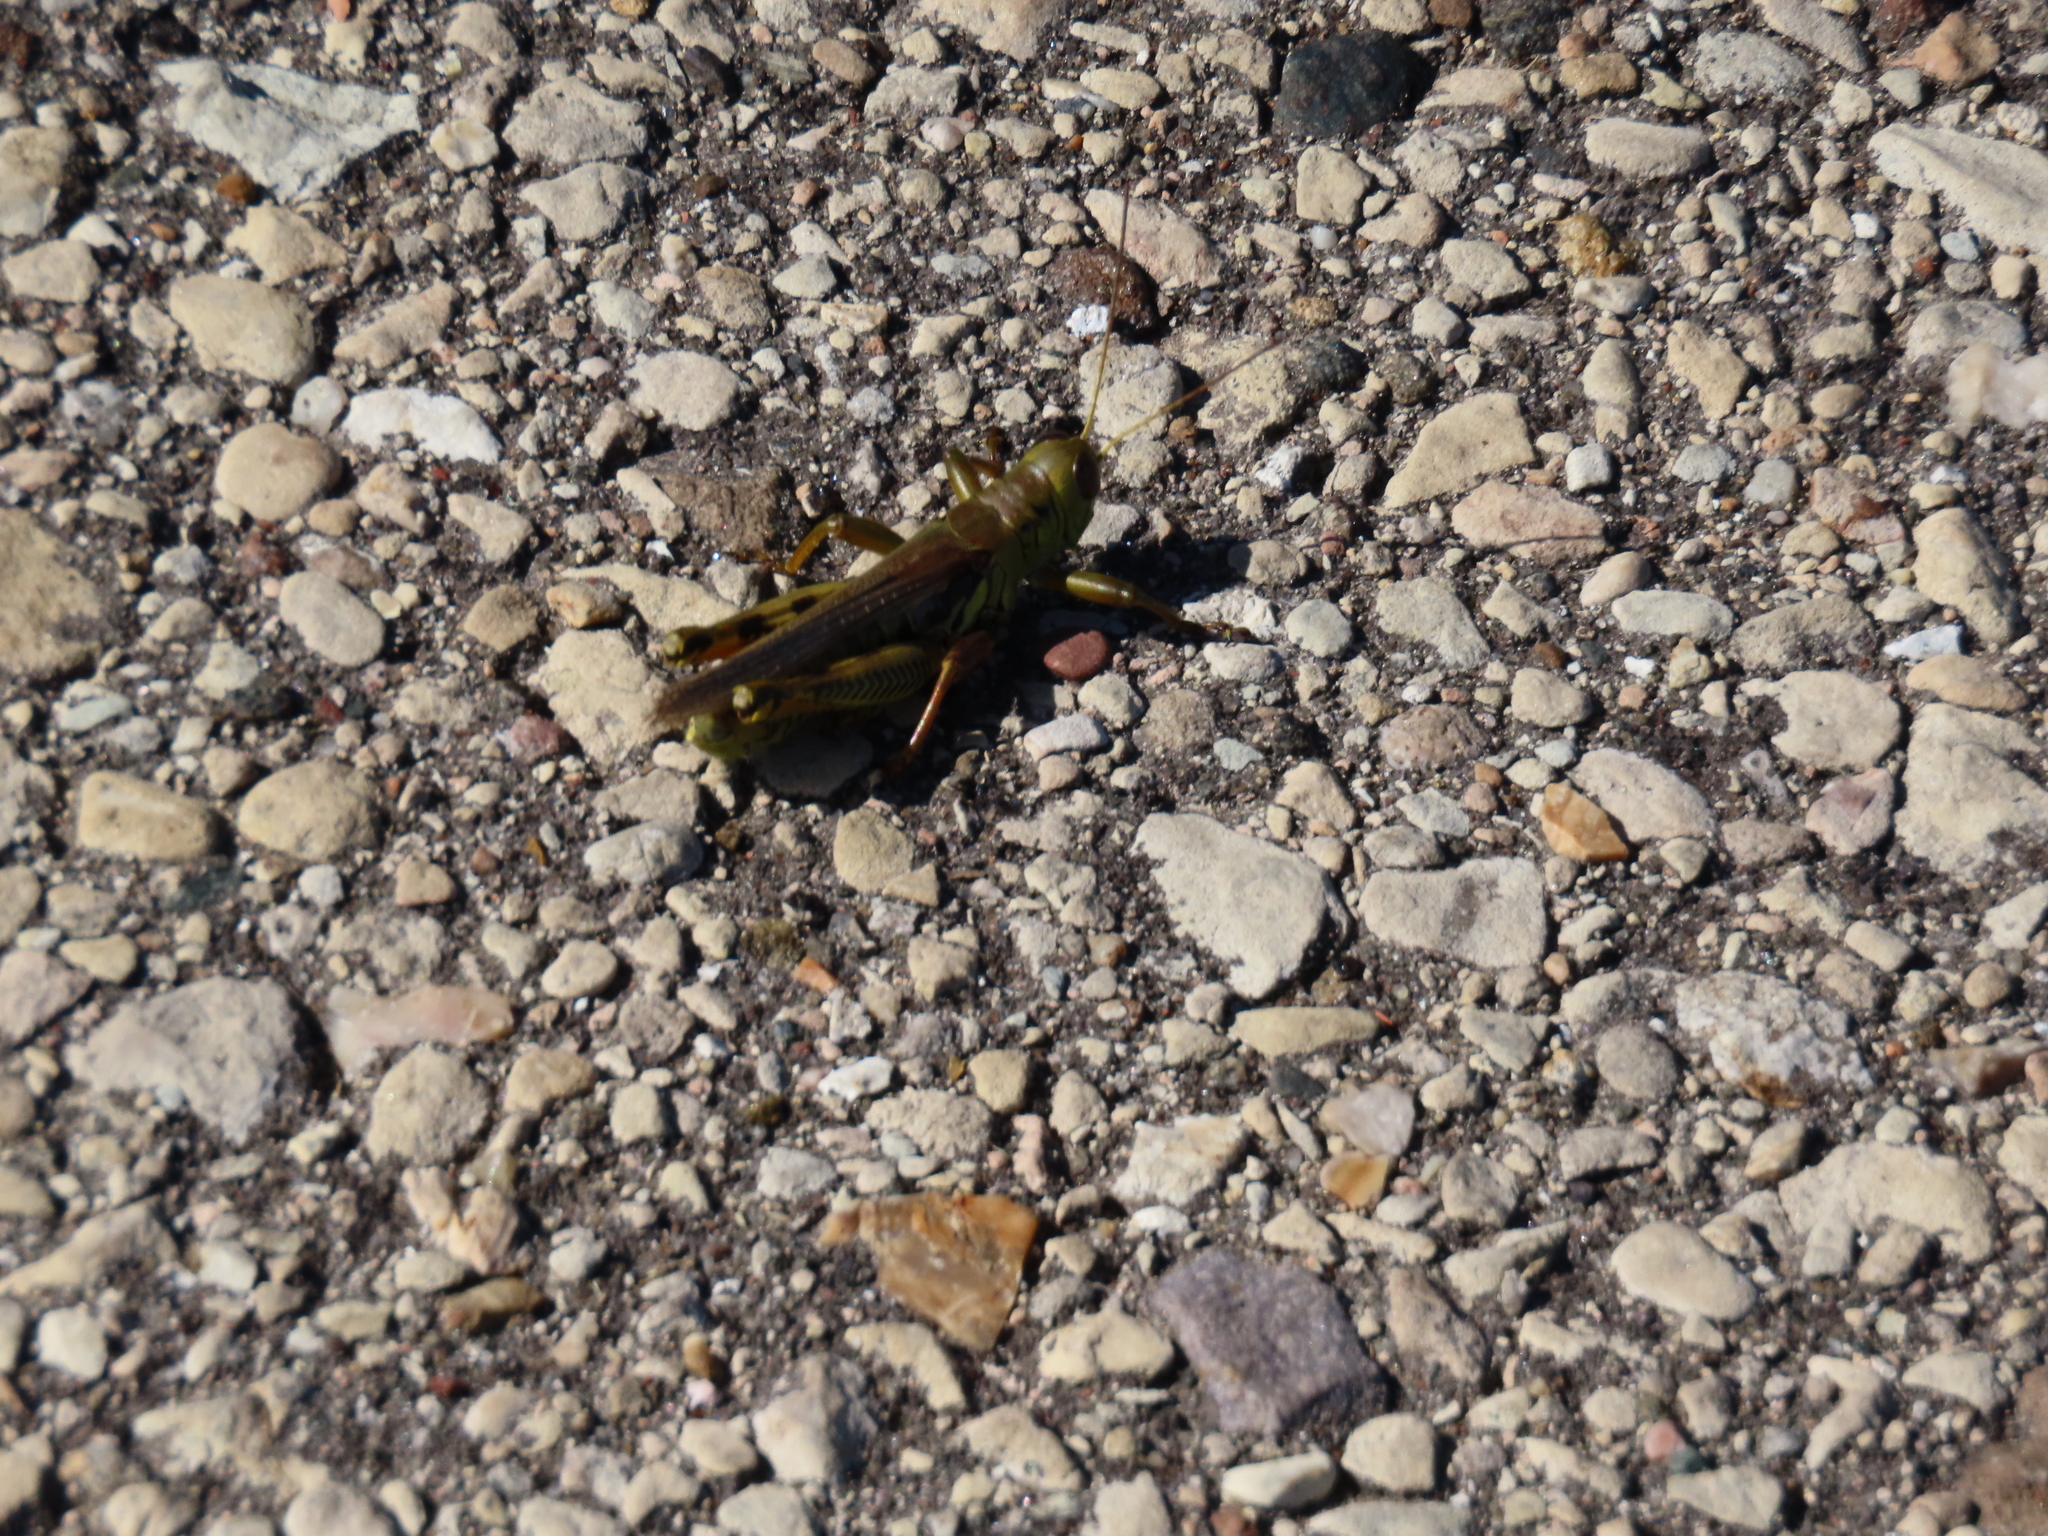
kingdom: Animalia
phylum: Arthropoda
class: Insecta
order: Orthoptera
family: Acrididae
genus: Melanoplus
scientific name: Melanoplus differentialis
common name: Differential grasshopper
